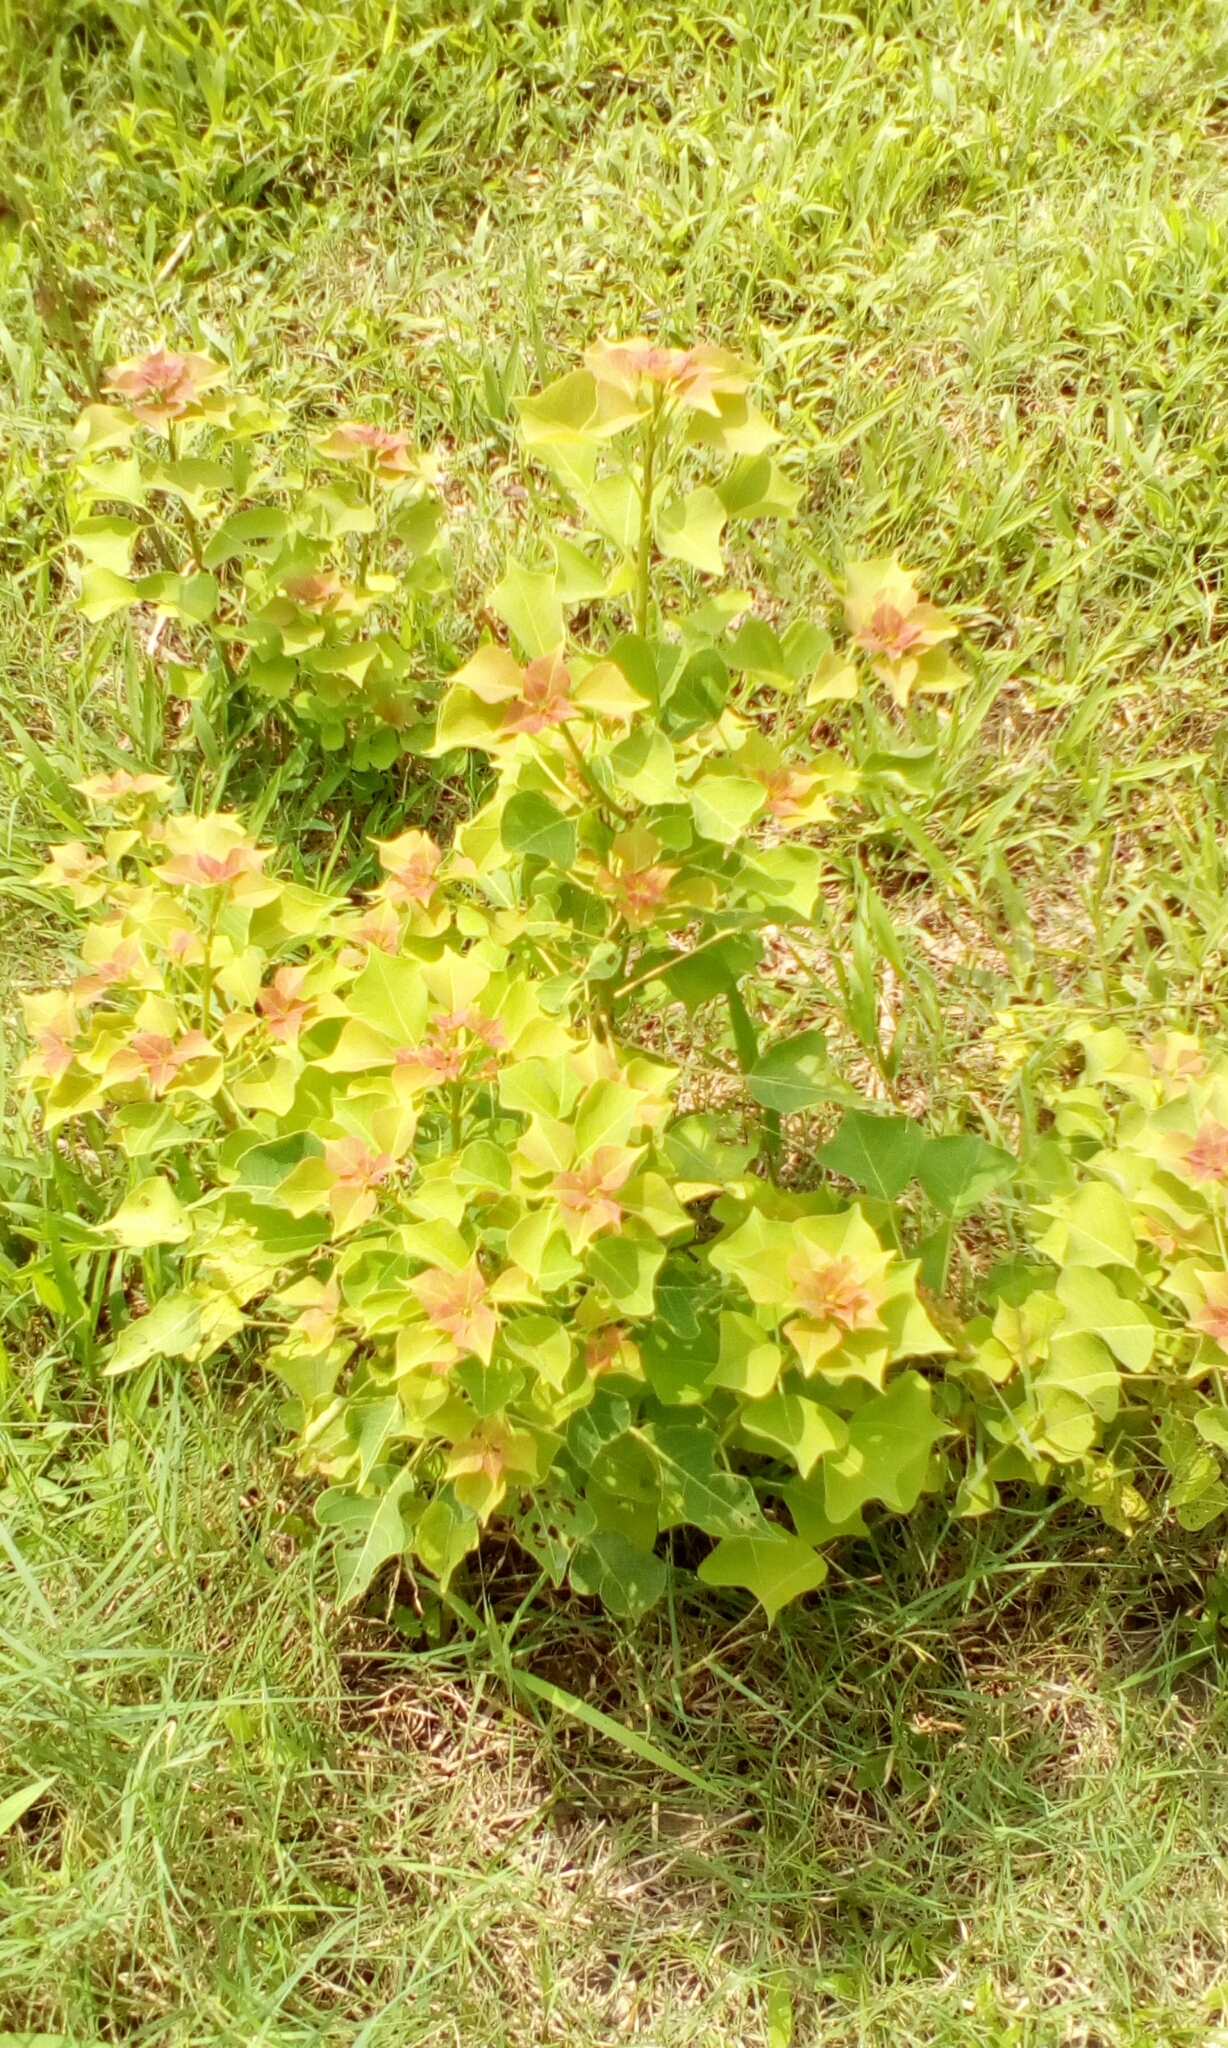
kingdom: Plantae
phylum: Tracheophyta
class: Magnoliopsida
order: Malpighiales
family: Euphorbiaceae
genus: Triadica
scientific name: Triadica sebifera
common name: Chinese tallow
